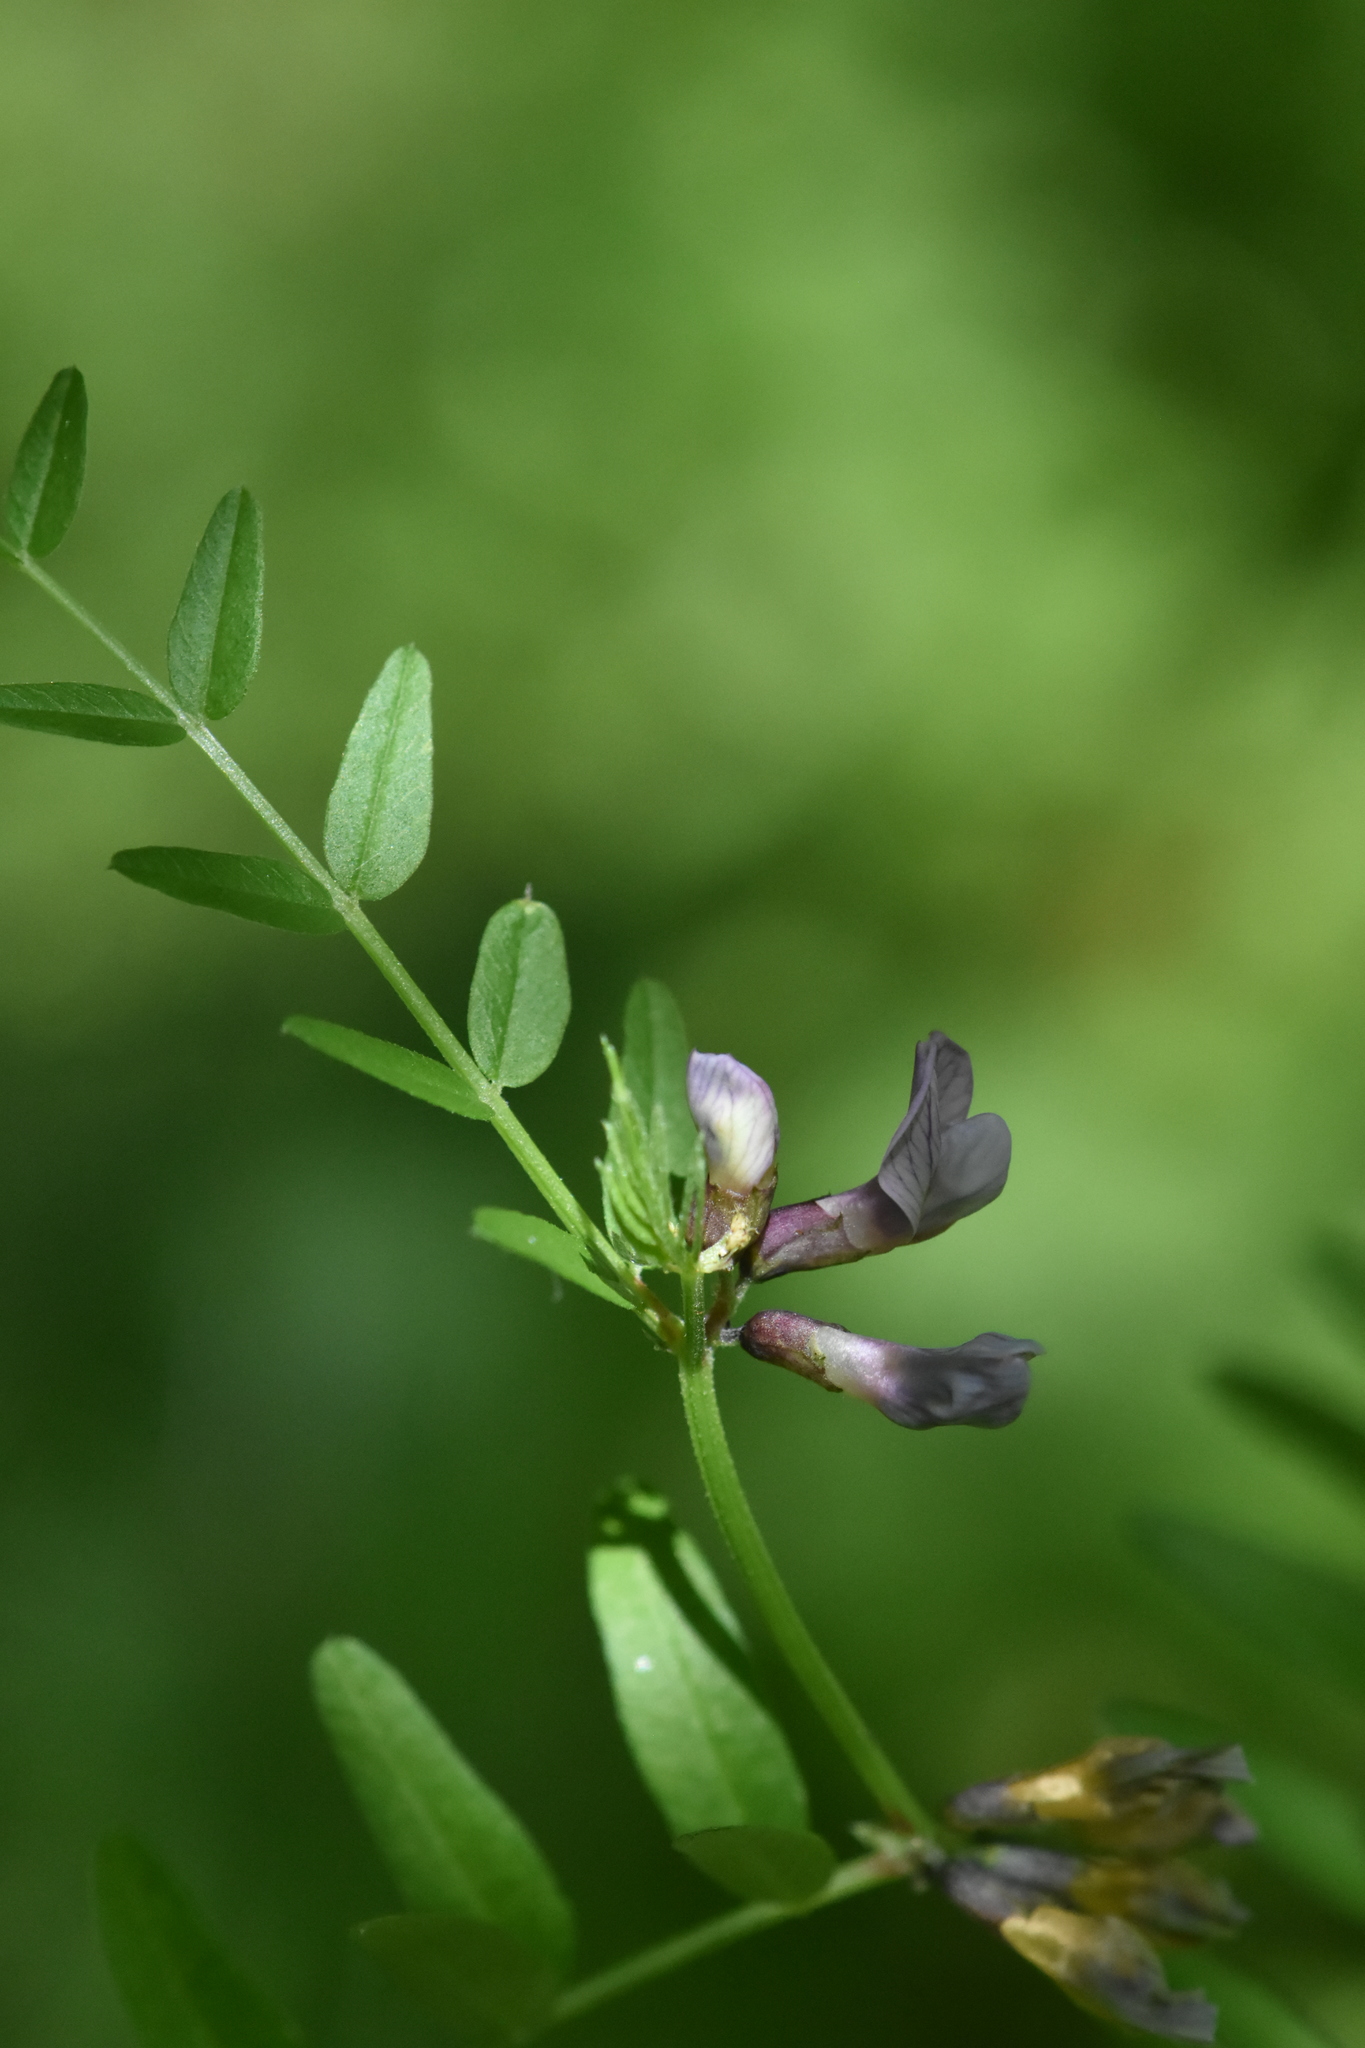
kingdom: Plantae
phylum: Tracheophyta
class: Magnoliopsida
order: Fabales
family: Fabaceae
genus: Vicia
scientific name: Vicia sepium
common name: Bush vetch
